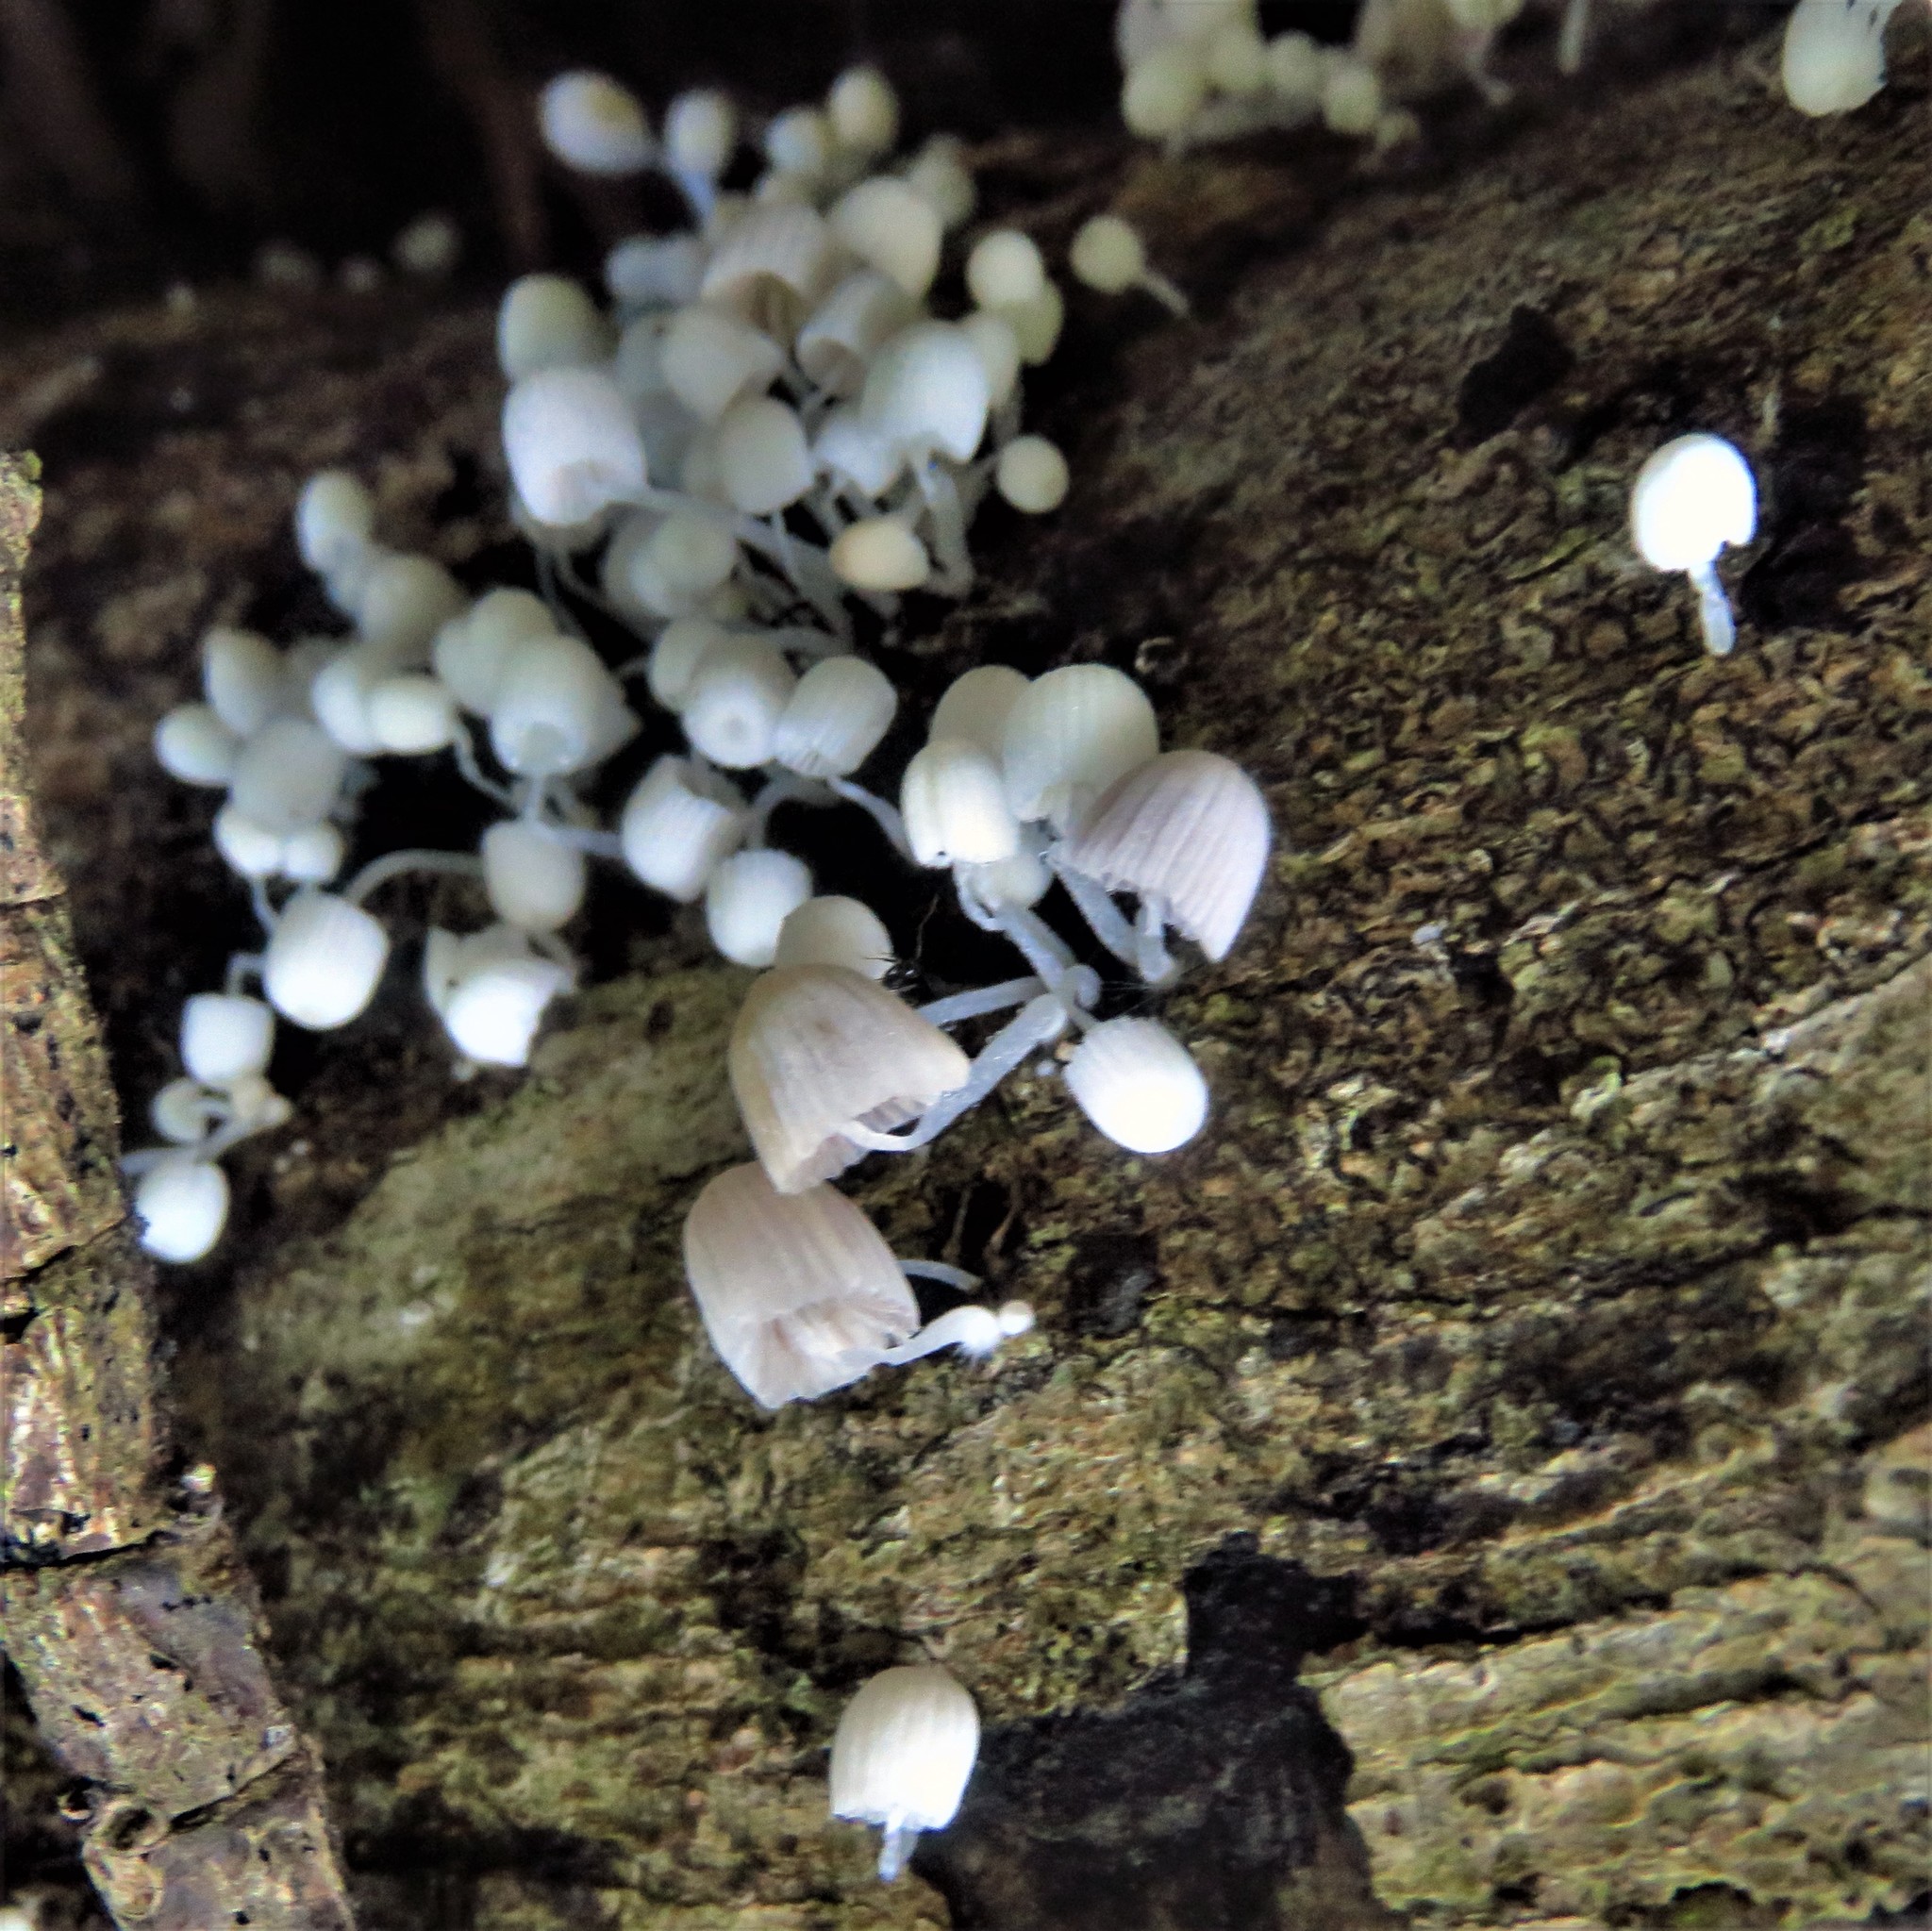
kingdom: Fungi
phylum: Basidiomycota
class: Agaricomycetes
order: Agaricales
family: Psathyrellaceae
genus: Coprinellus
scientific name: Coprinellus disseminatus
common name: Fairies' bonnets
